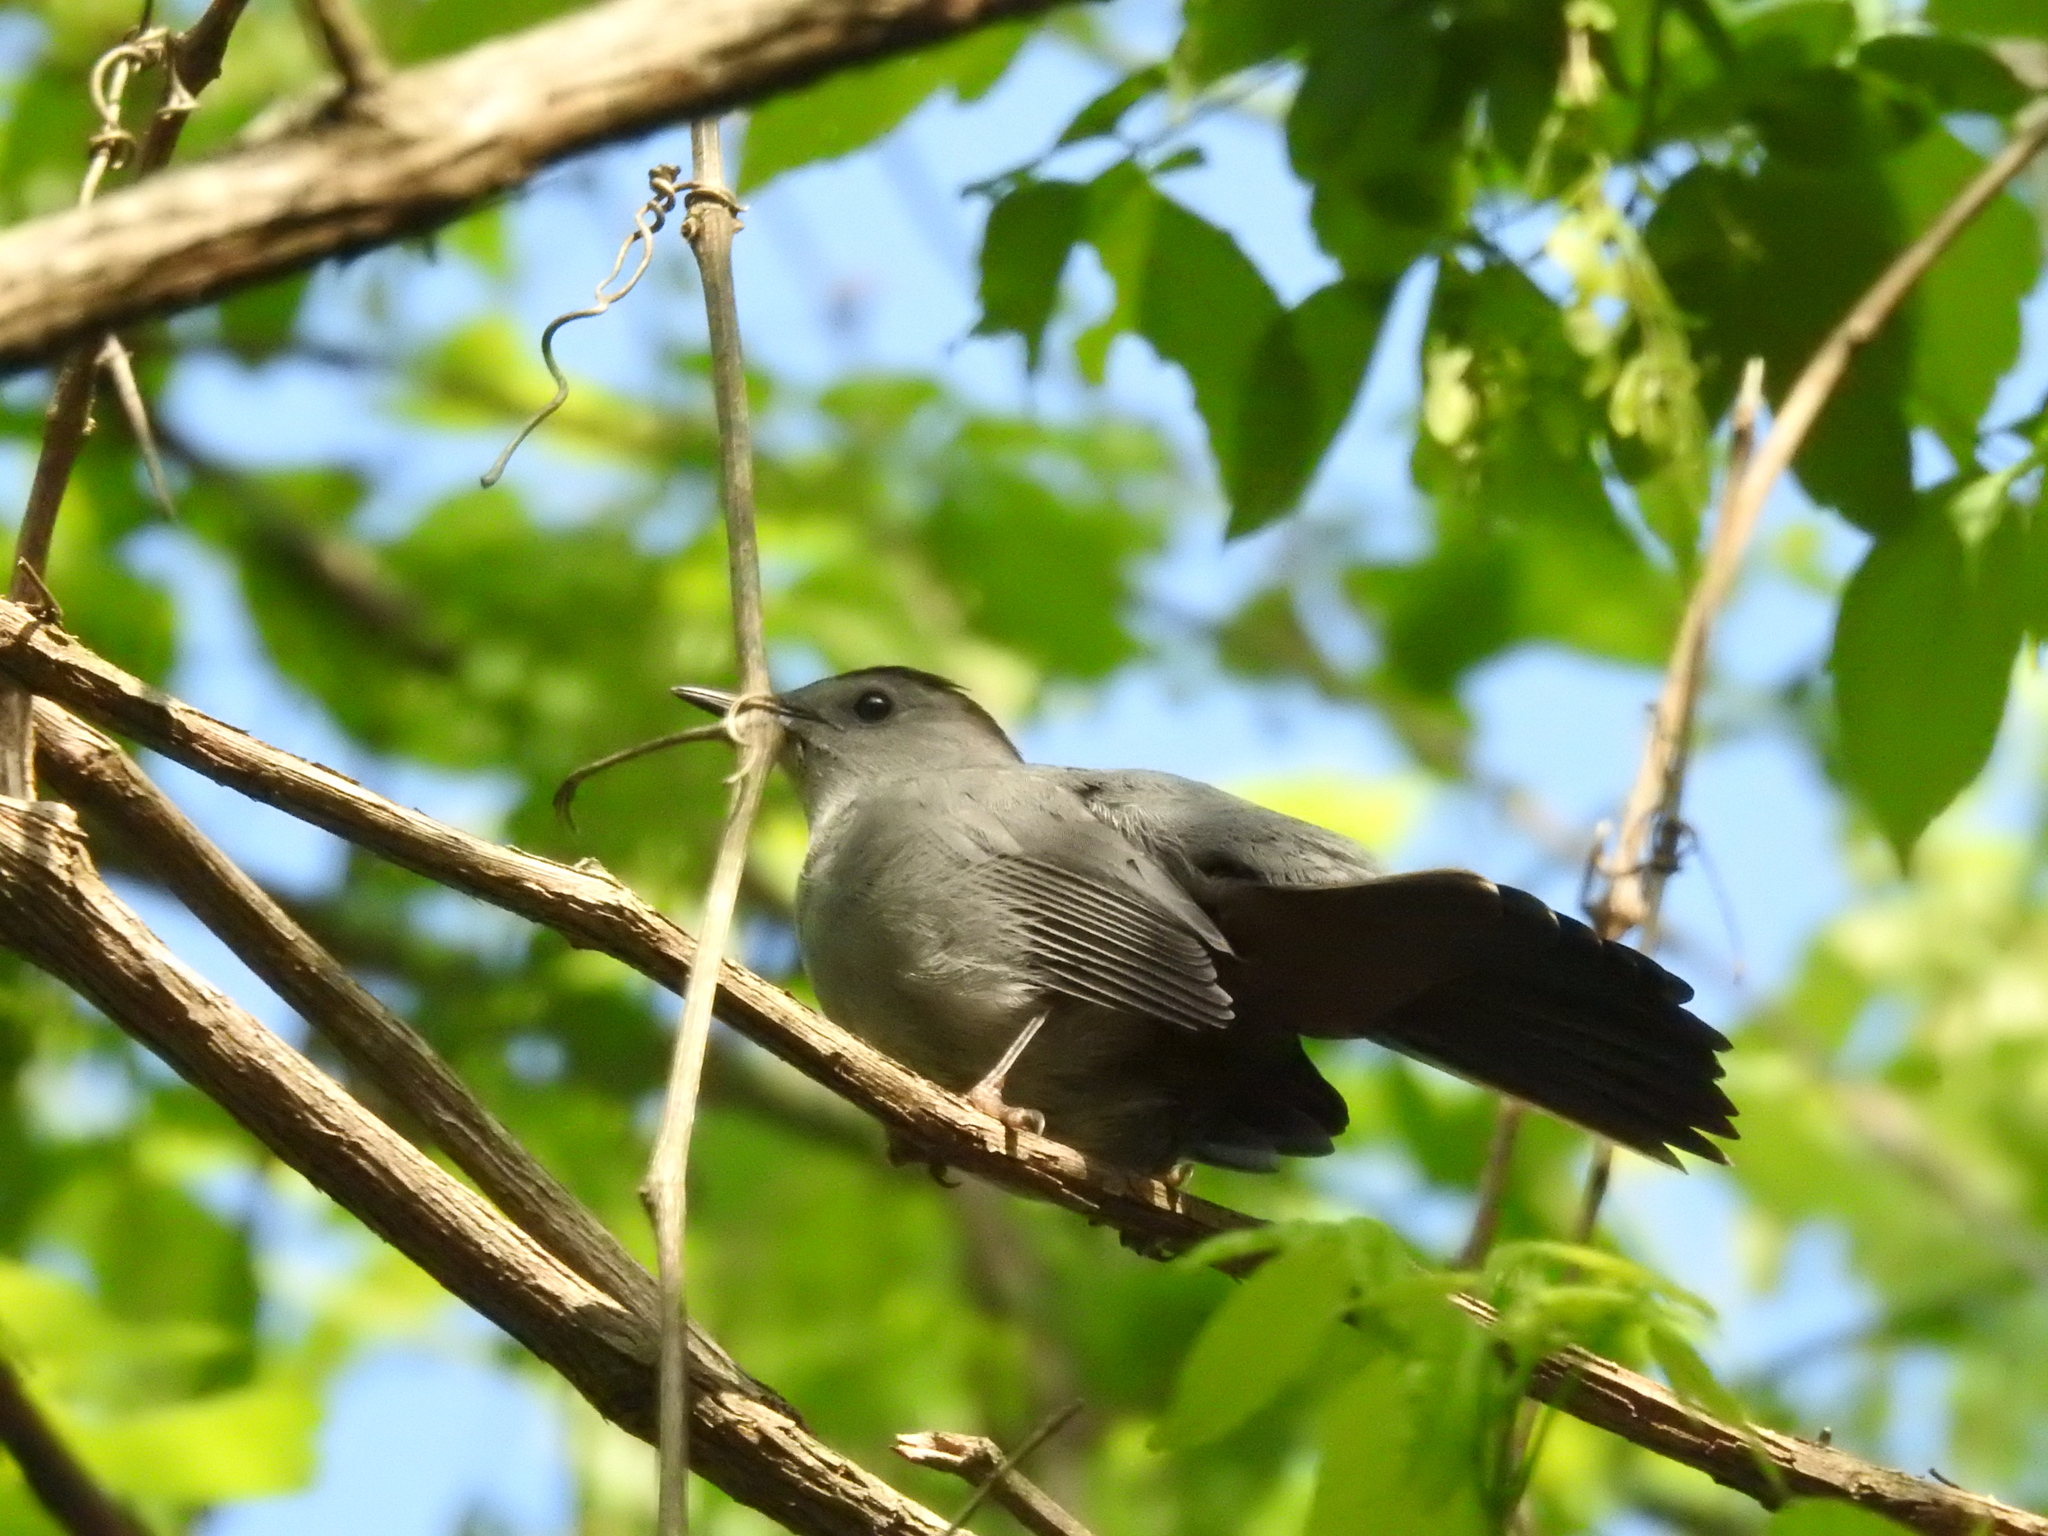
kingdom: Animalia
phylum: Chordata
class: Aves
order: Passeriformes
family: Mimidae
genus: Dumetella
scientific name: Dumetella carolinensis
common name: Gray catbird
